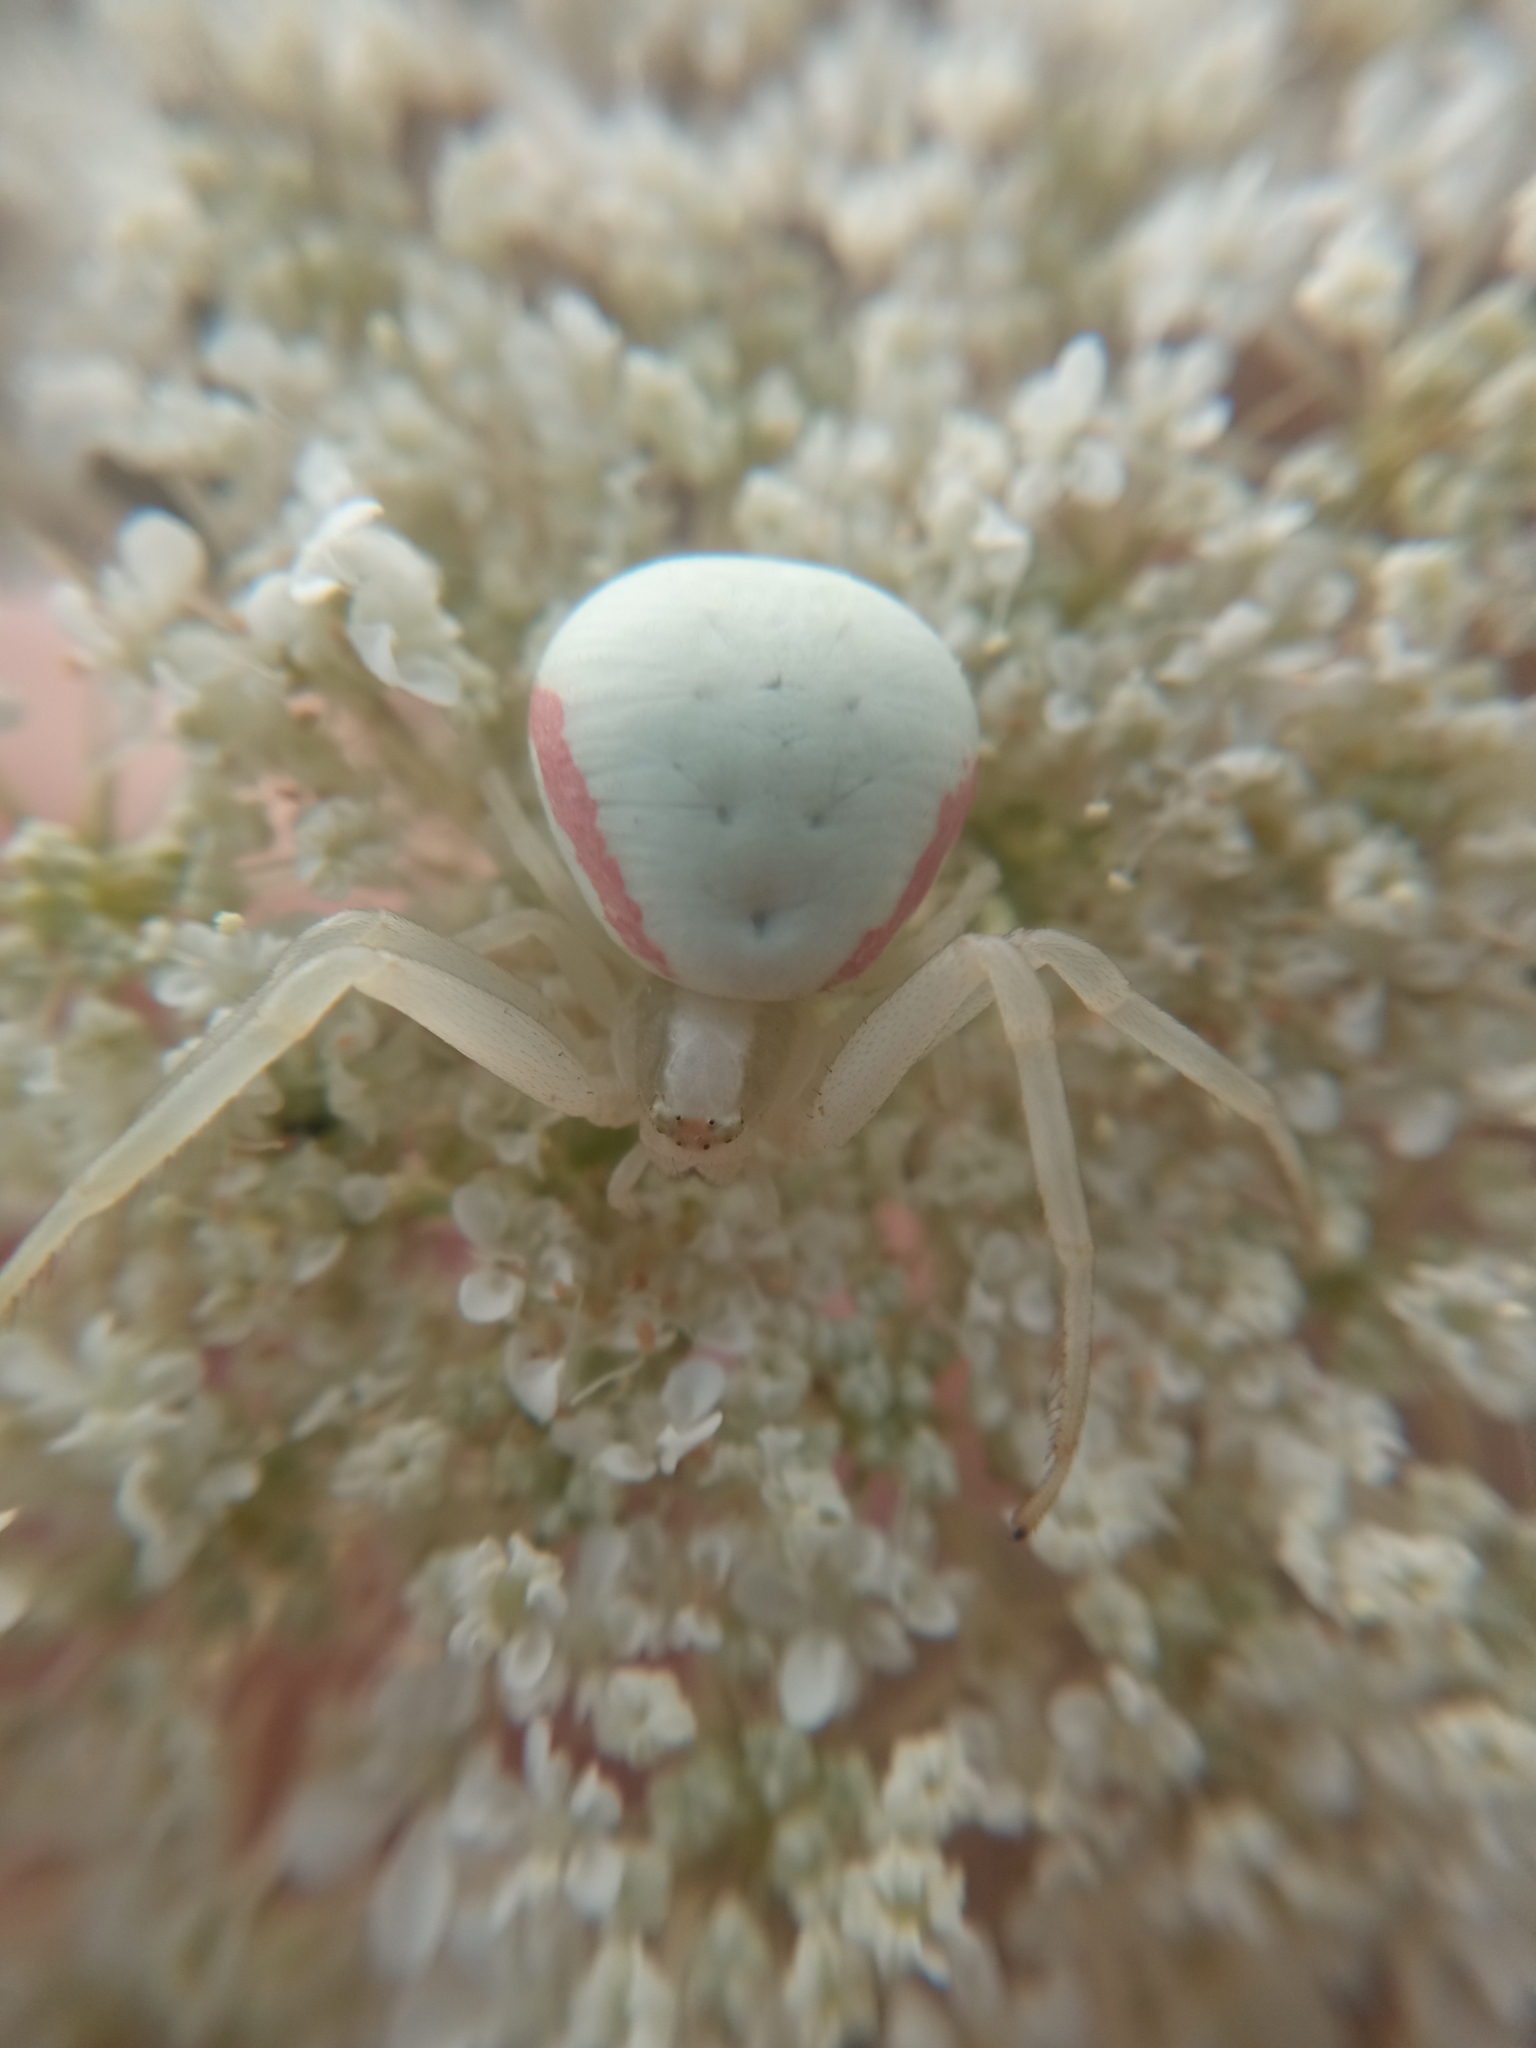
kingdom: Animalia
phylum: Arthropoda
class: Arachnida
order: Araneae
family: Thomisidae
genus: Misumena
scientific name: Misumena vatia
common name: Goldenrod crab spider
